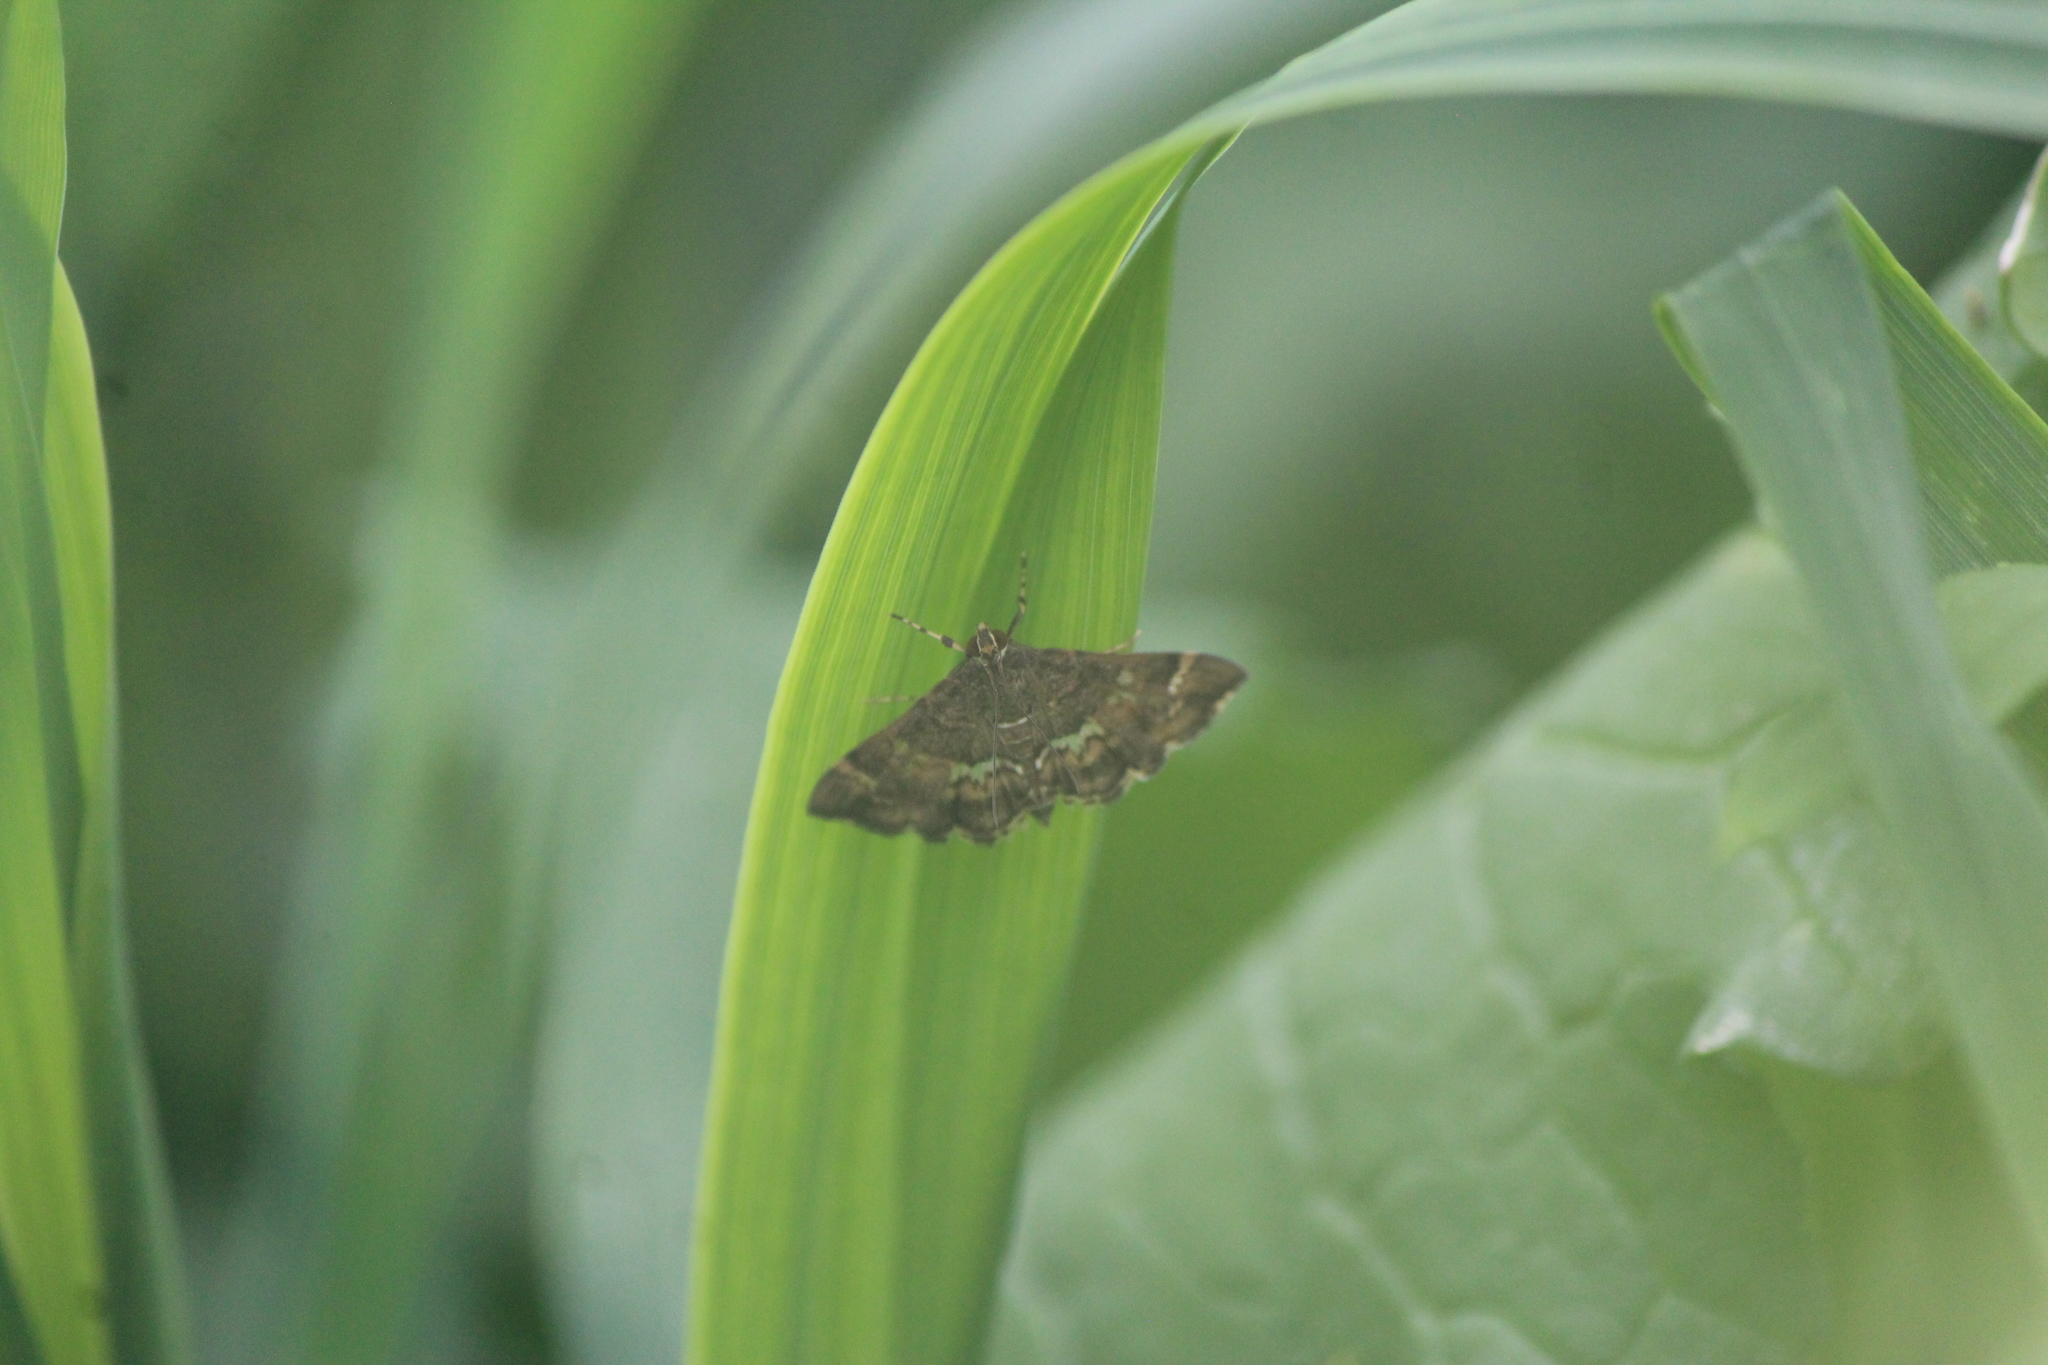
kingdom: Animalia
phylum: Arthropoda
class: Insecta
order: Lepidoptera
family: Crambidae
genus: Hymenia
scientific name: Hymenia perspectalis
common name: Spotted beet webworm
